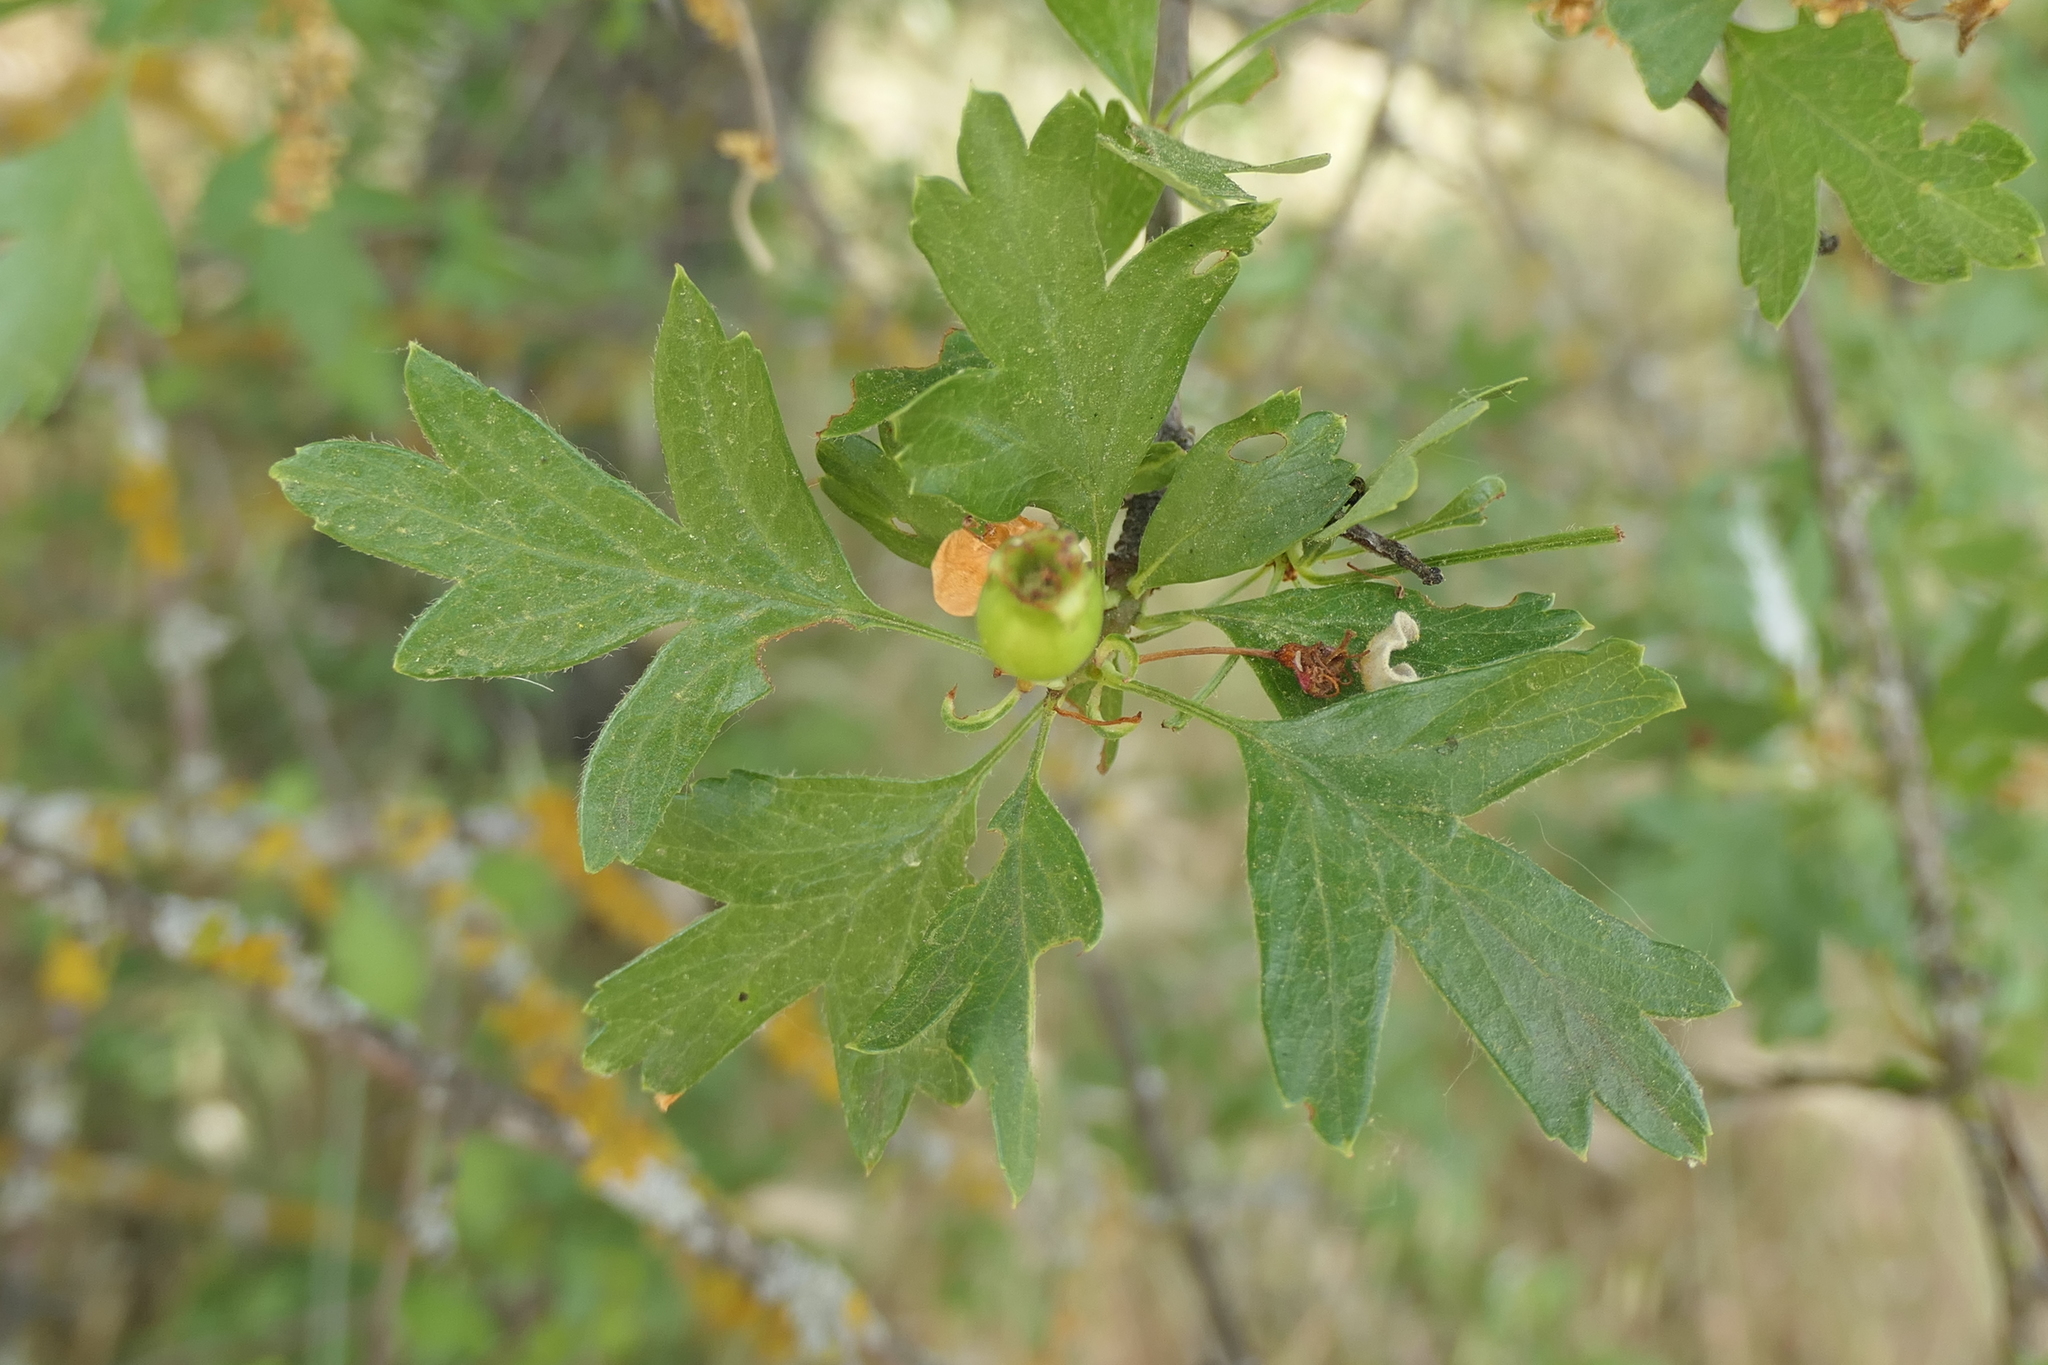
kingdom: Plantae
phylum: Tracheophyta
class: Magnoliopsida
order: Rosales
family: Rosaceae
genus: Crataegus
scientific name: Crataegus monogyna
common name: Hawthorn
